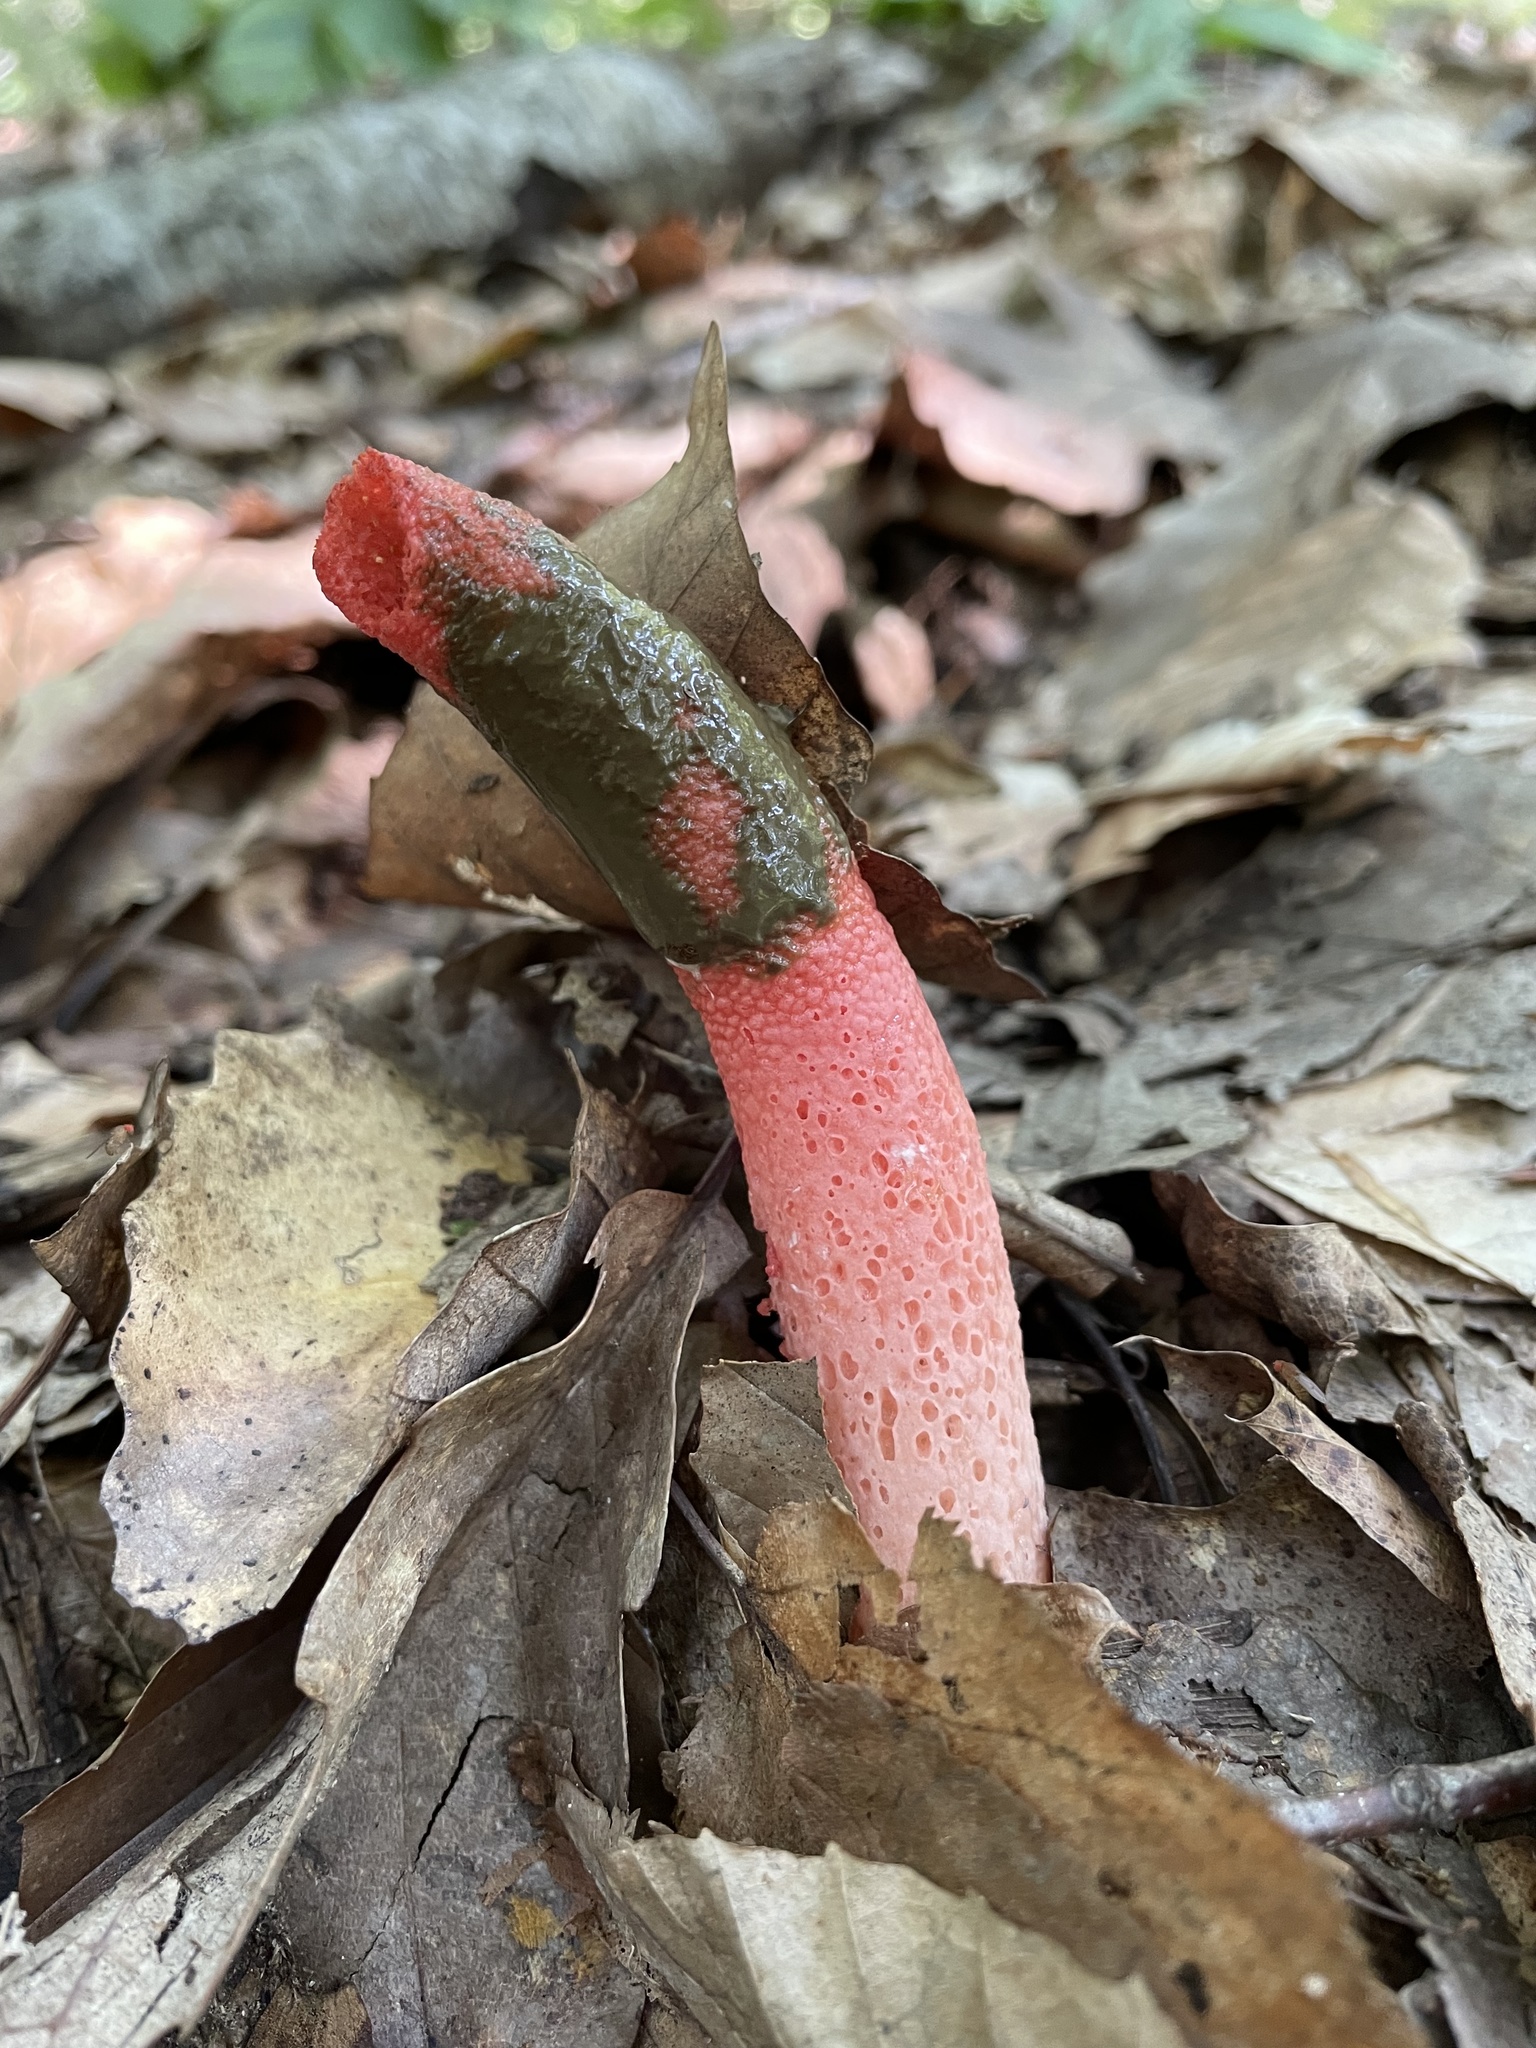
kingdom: Fungi
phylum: Basidiomycota
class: Agaricomycetes
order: Phallales
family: Phallaceae
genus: Mutinus
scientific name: Mutinus elegans
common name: Devil's dipstick
